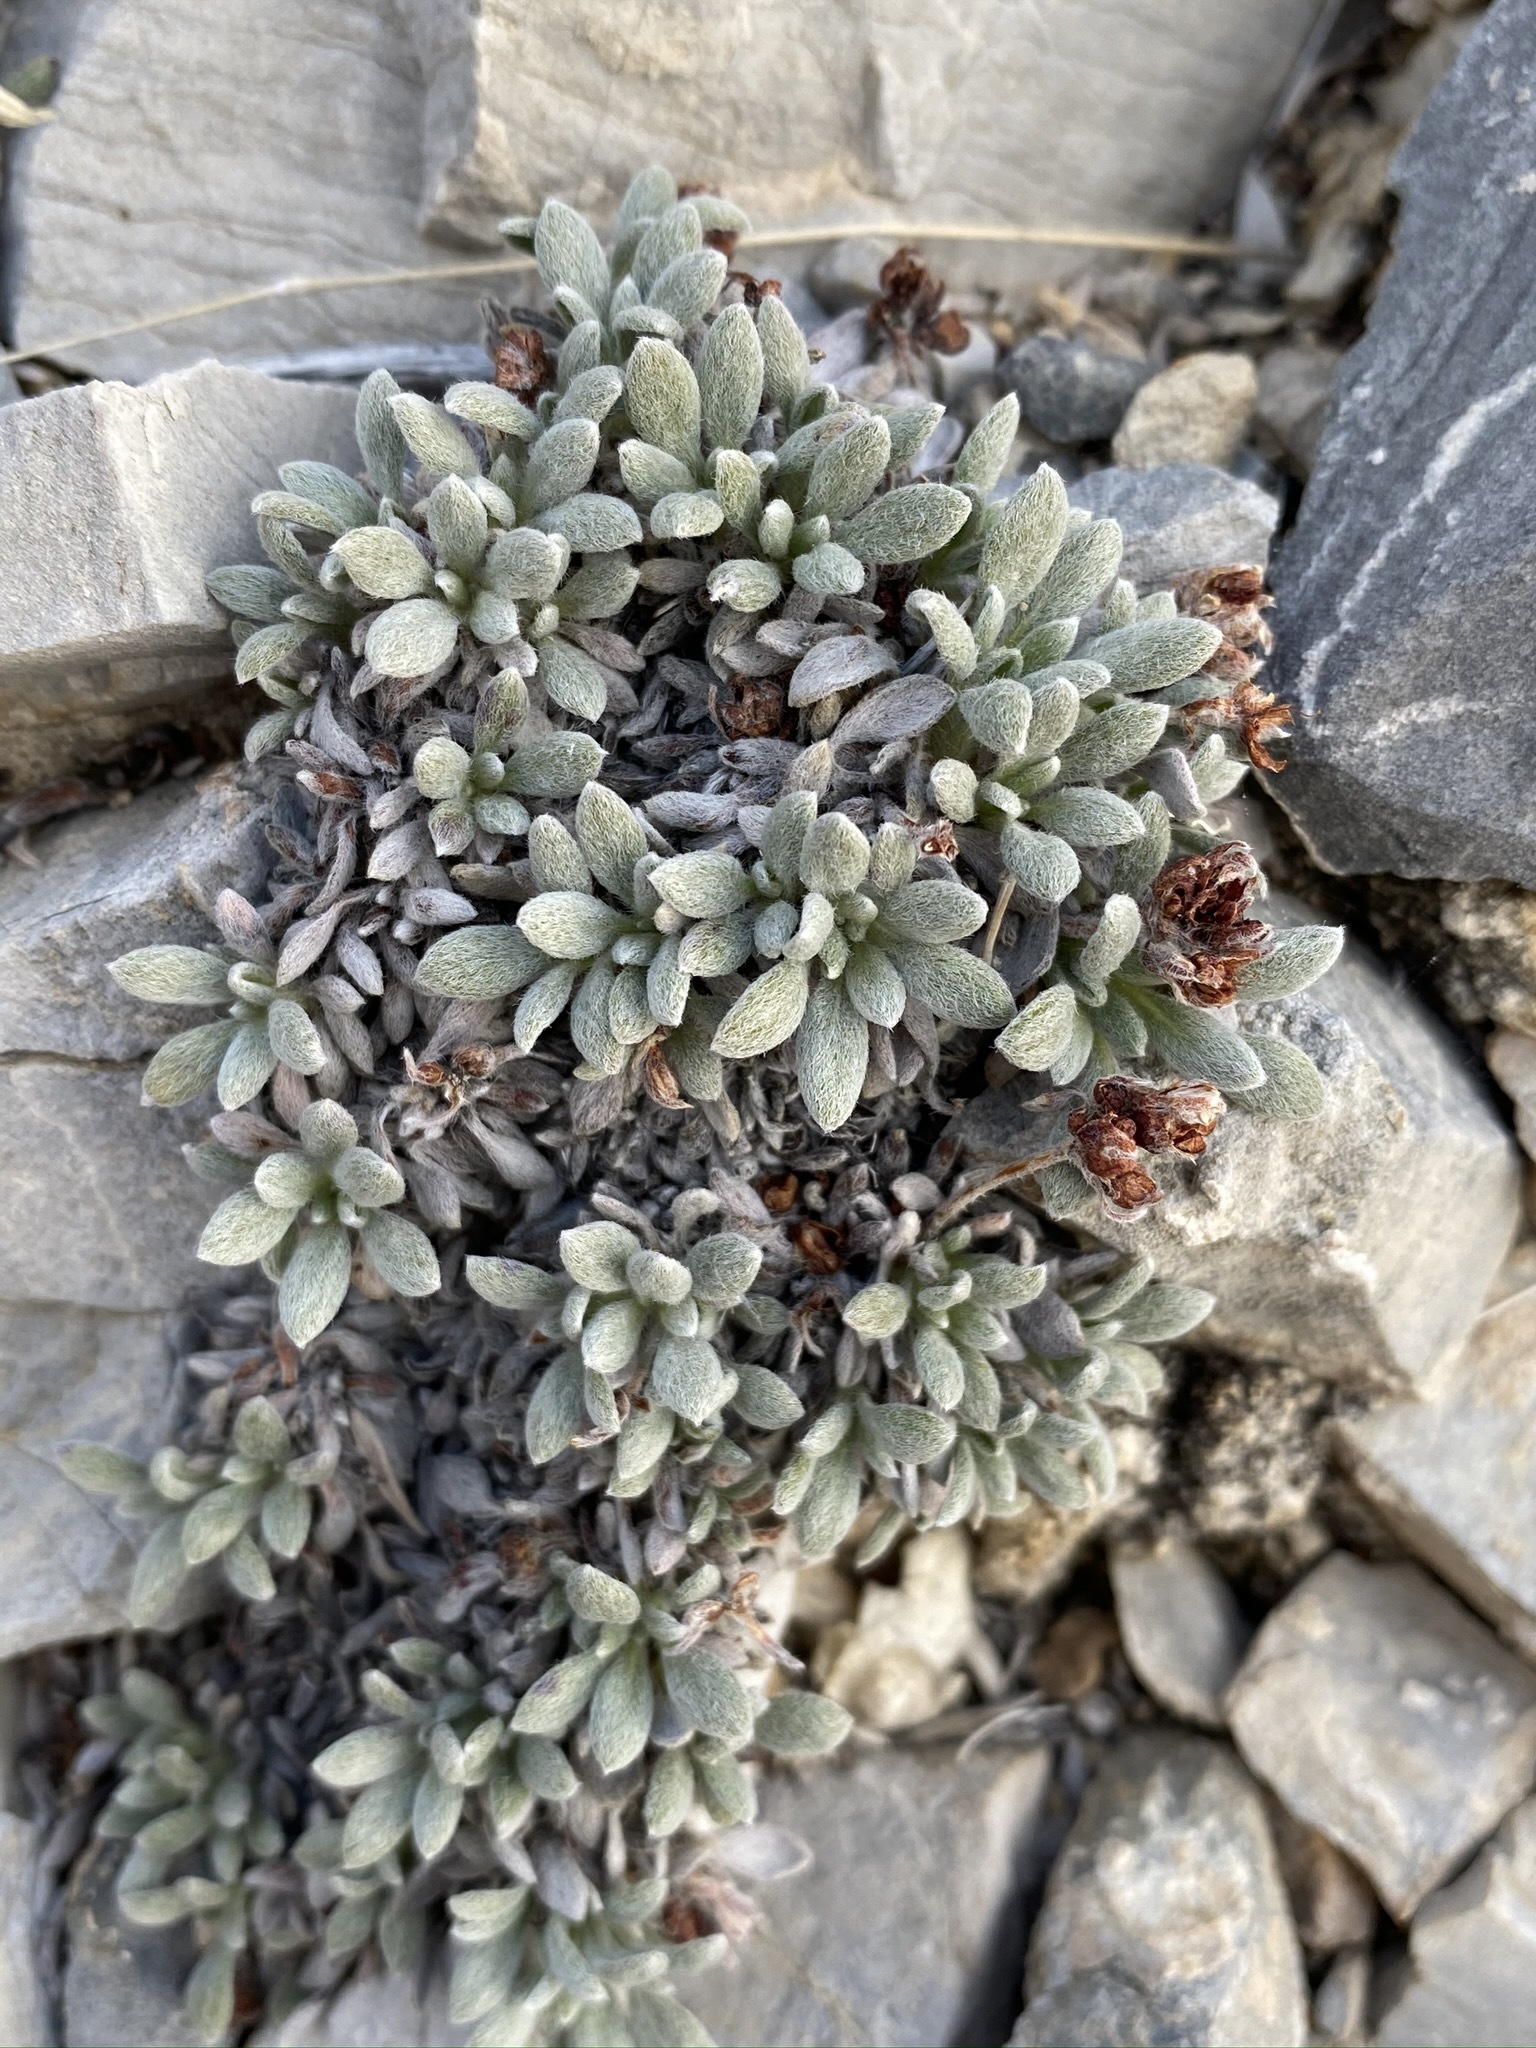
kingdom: Plantae
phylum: Tracheophyta
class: Magnoliopsida
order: Caryophyllales
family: Polygonaceae
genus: Eriogonum
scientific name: Eriogonum gilmanii
